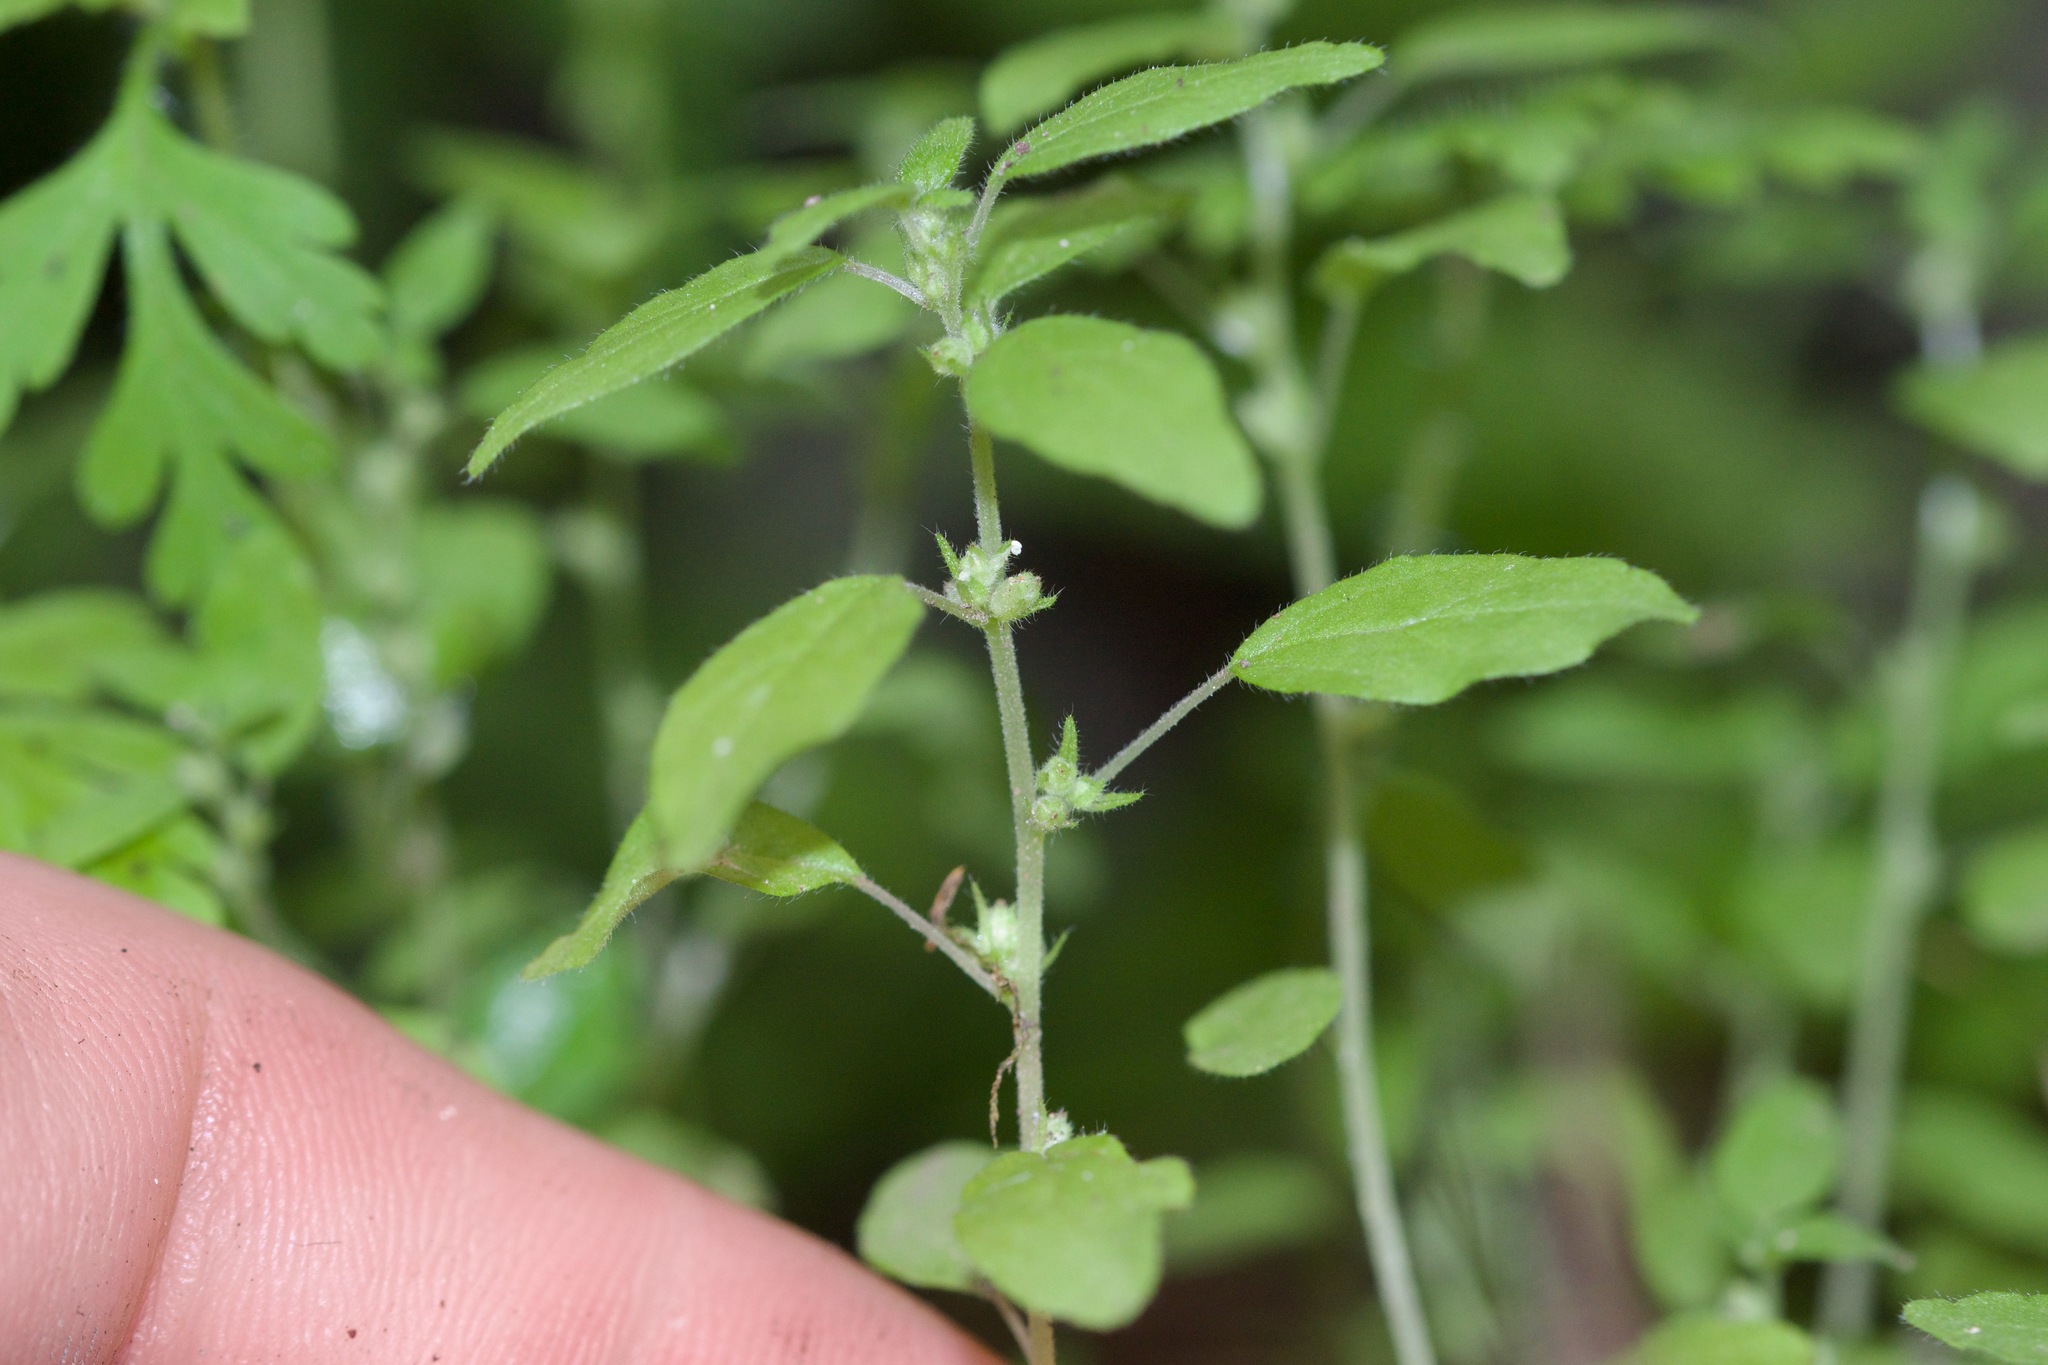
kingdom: Plantae
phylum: Tracheophyta
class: Magnoliopsida
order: Rosales
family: Urticaceae
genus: Parietaria
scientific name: Parietaria pensylvanica
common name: Pennsylvania pellitory
